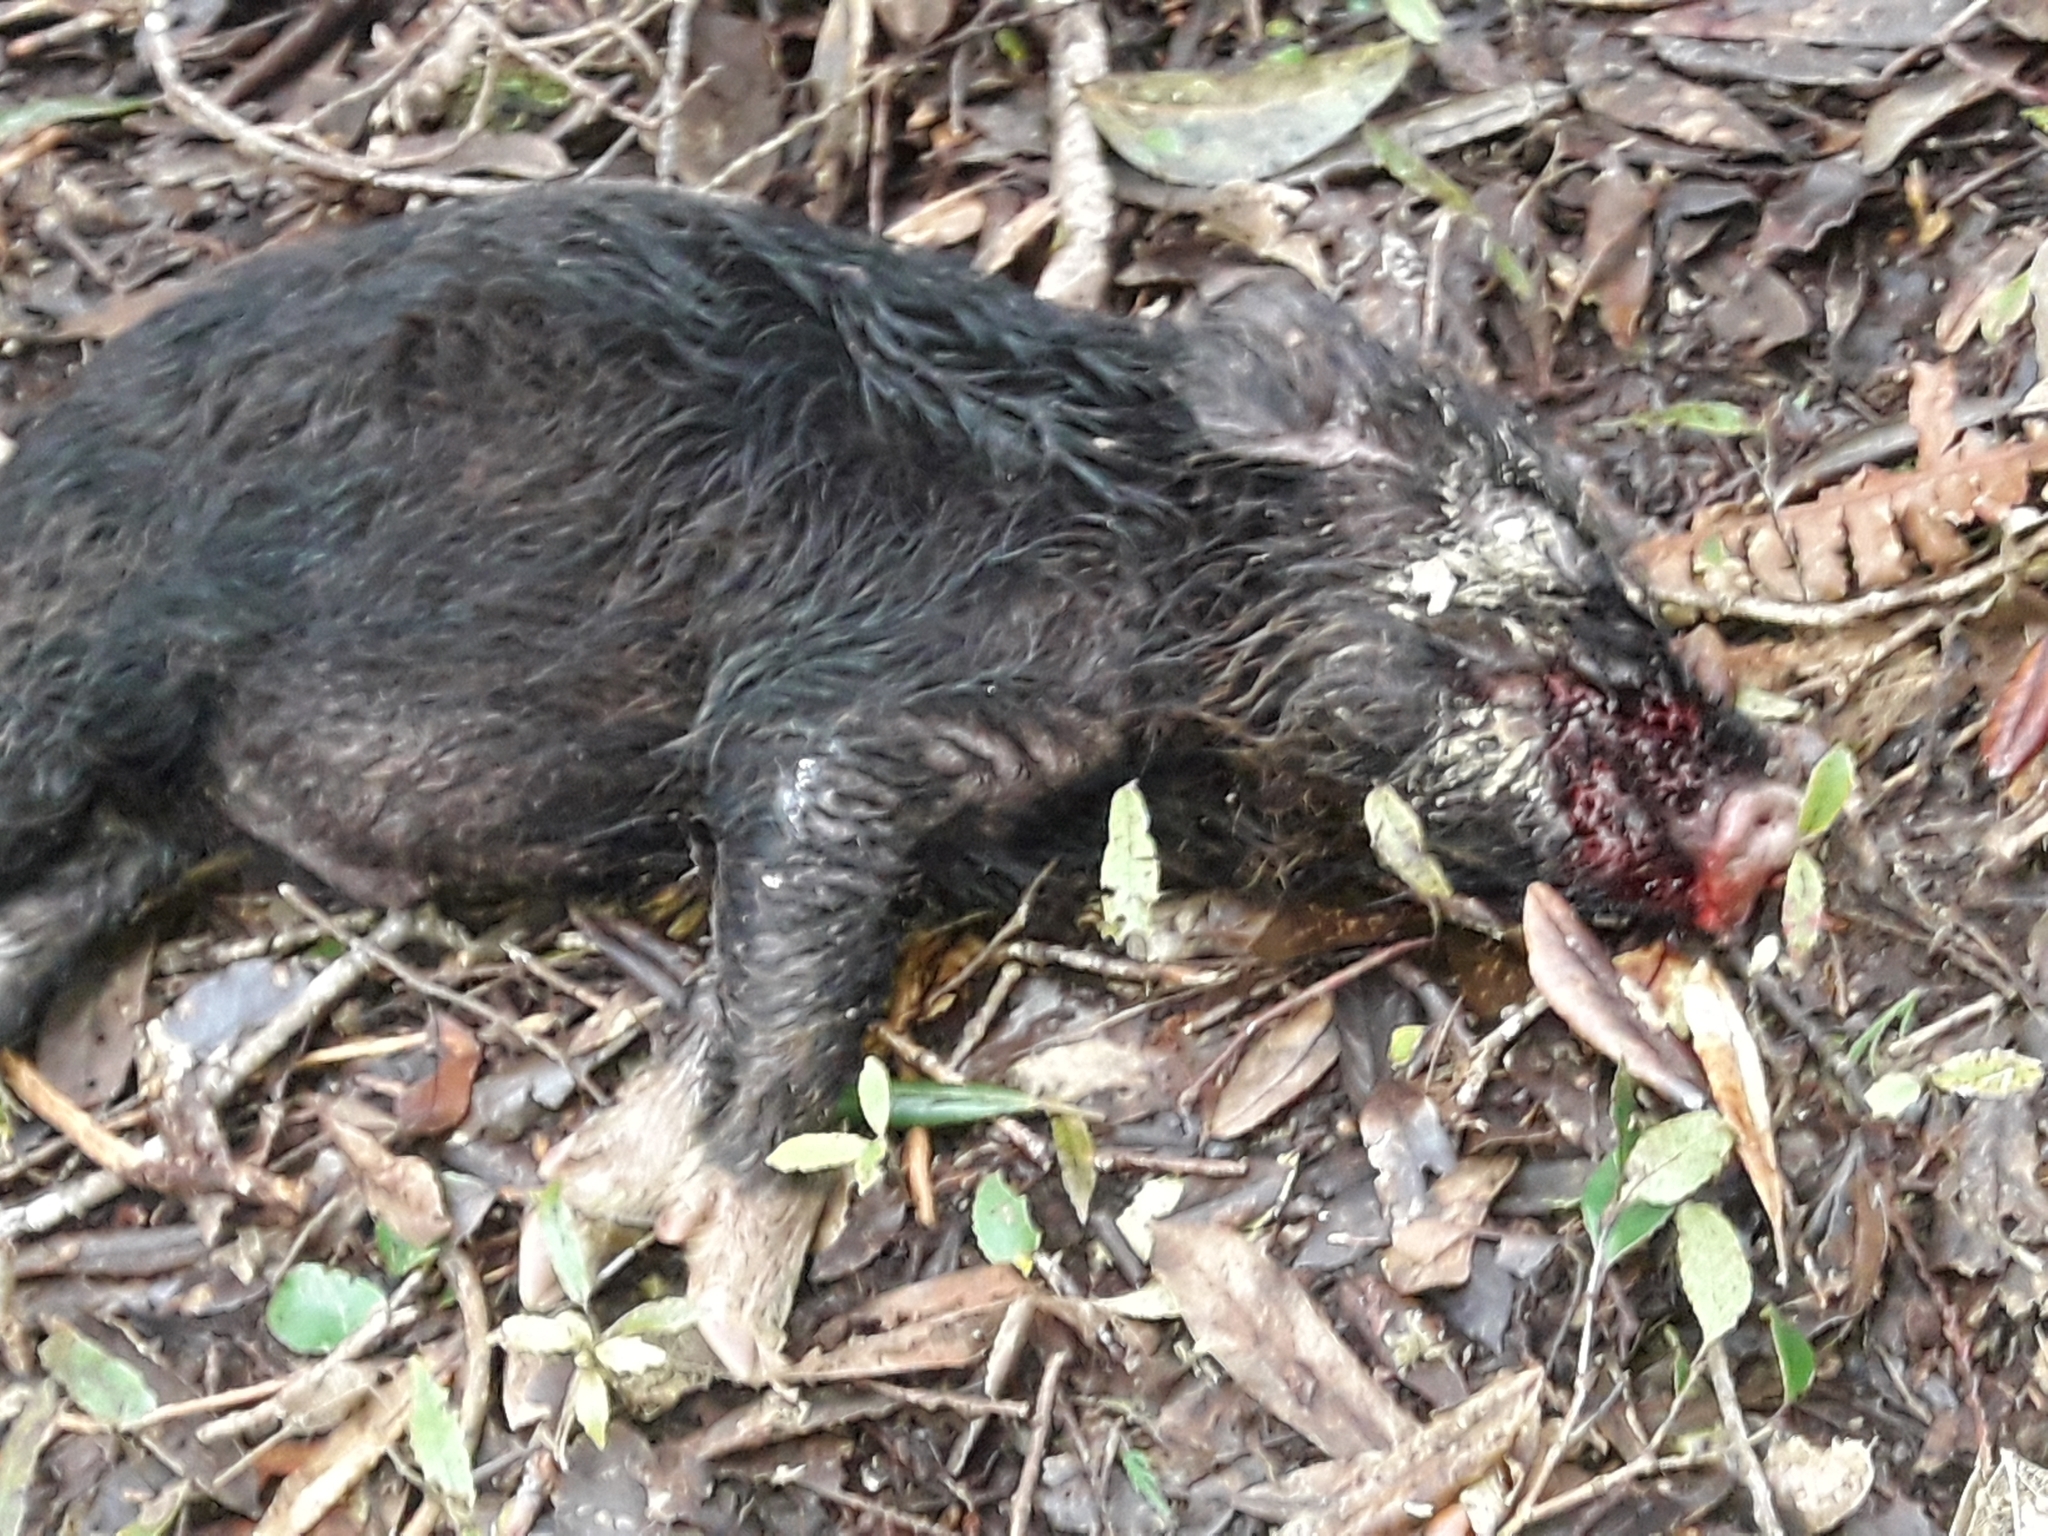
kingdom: Animalia
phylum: Chordata
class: Mammalia
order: Artiodactyla
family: Suidae
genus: Sus
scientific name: Sus scrofa
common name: Wild boar
